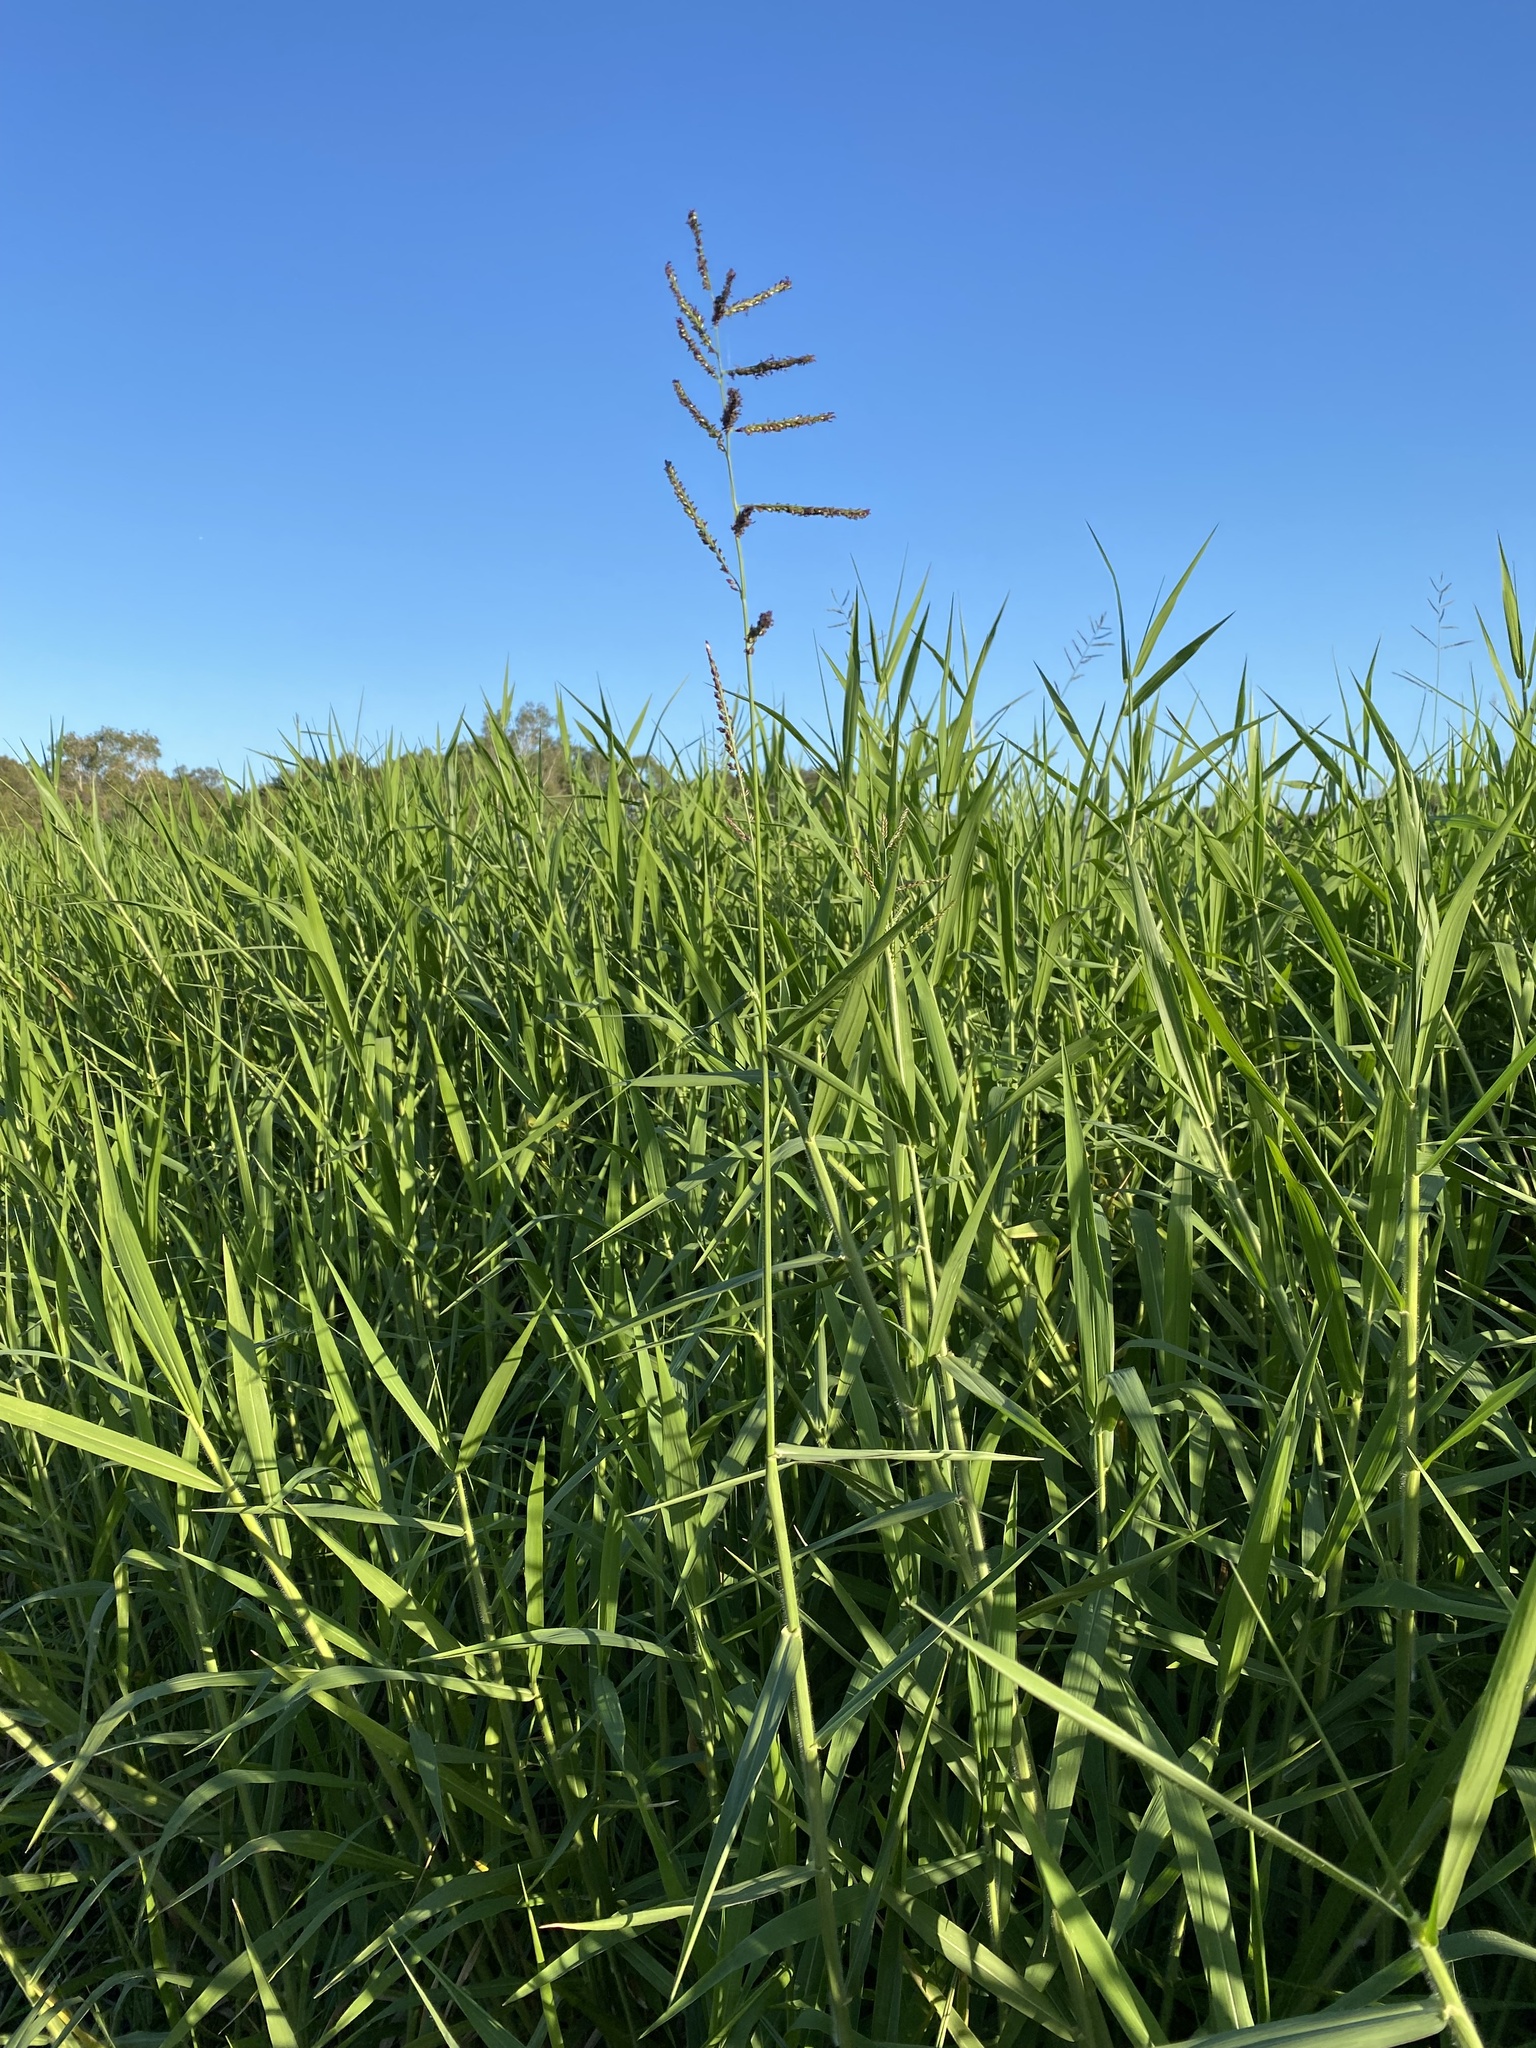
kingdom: Plantae
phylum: Tracheophyta
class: Liliopsida
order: Poales
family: Poaceae
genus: Urochloa
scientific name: Urochloa mutica
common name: Para grass
